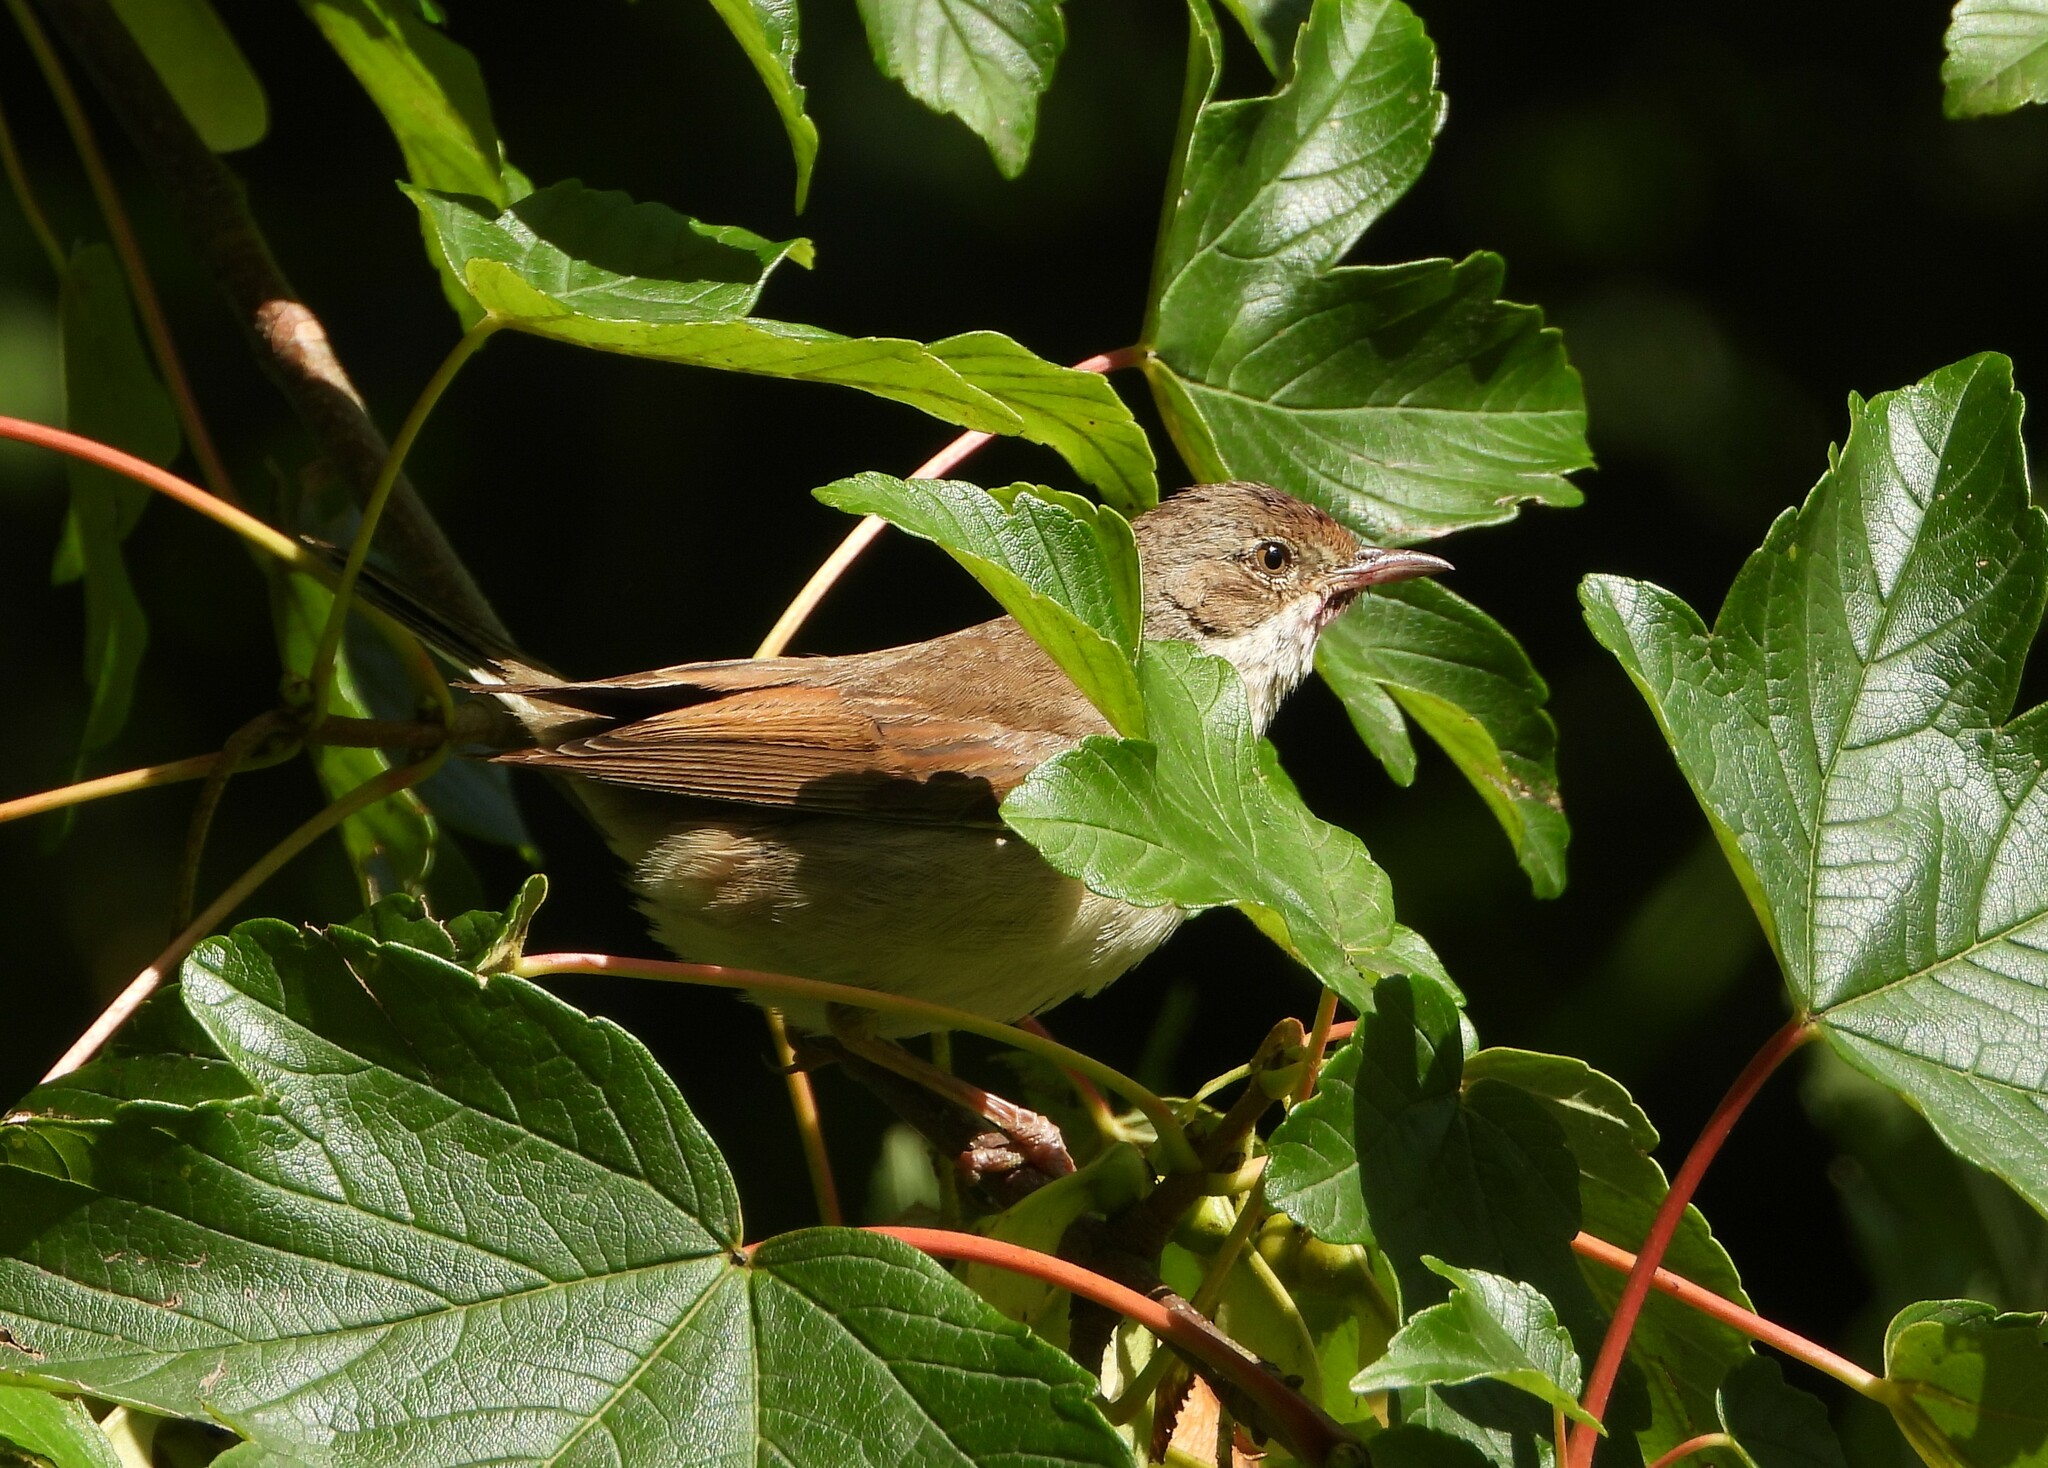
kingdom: Animalia
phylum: Chordata
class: Aves
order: Passeriformes
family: Sylviidae
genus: Sylvia
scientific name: Sylvia communis
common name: Common whitethroat
